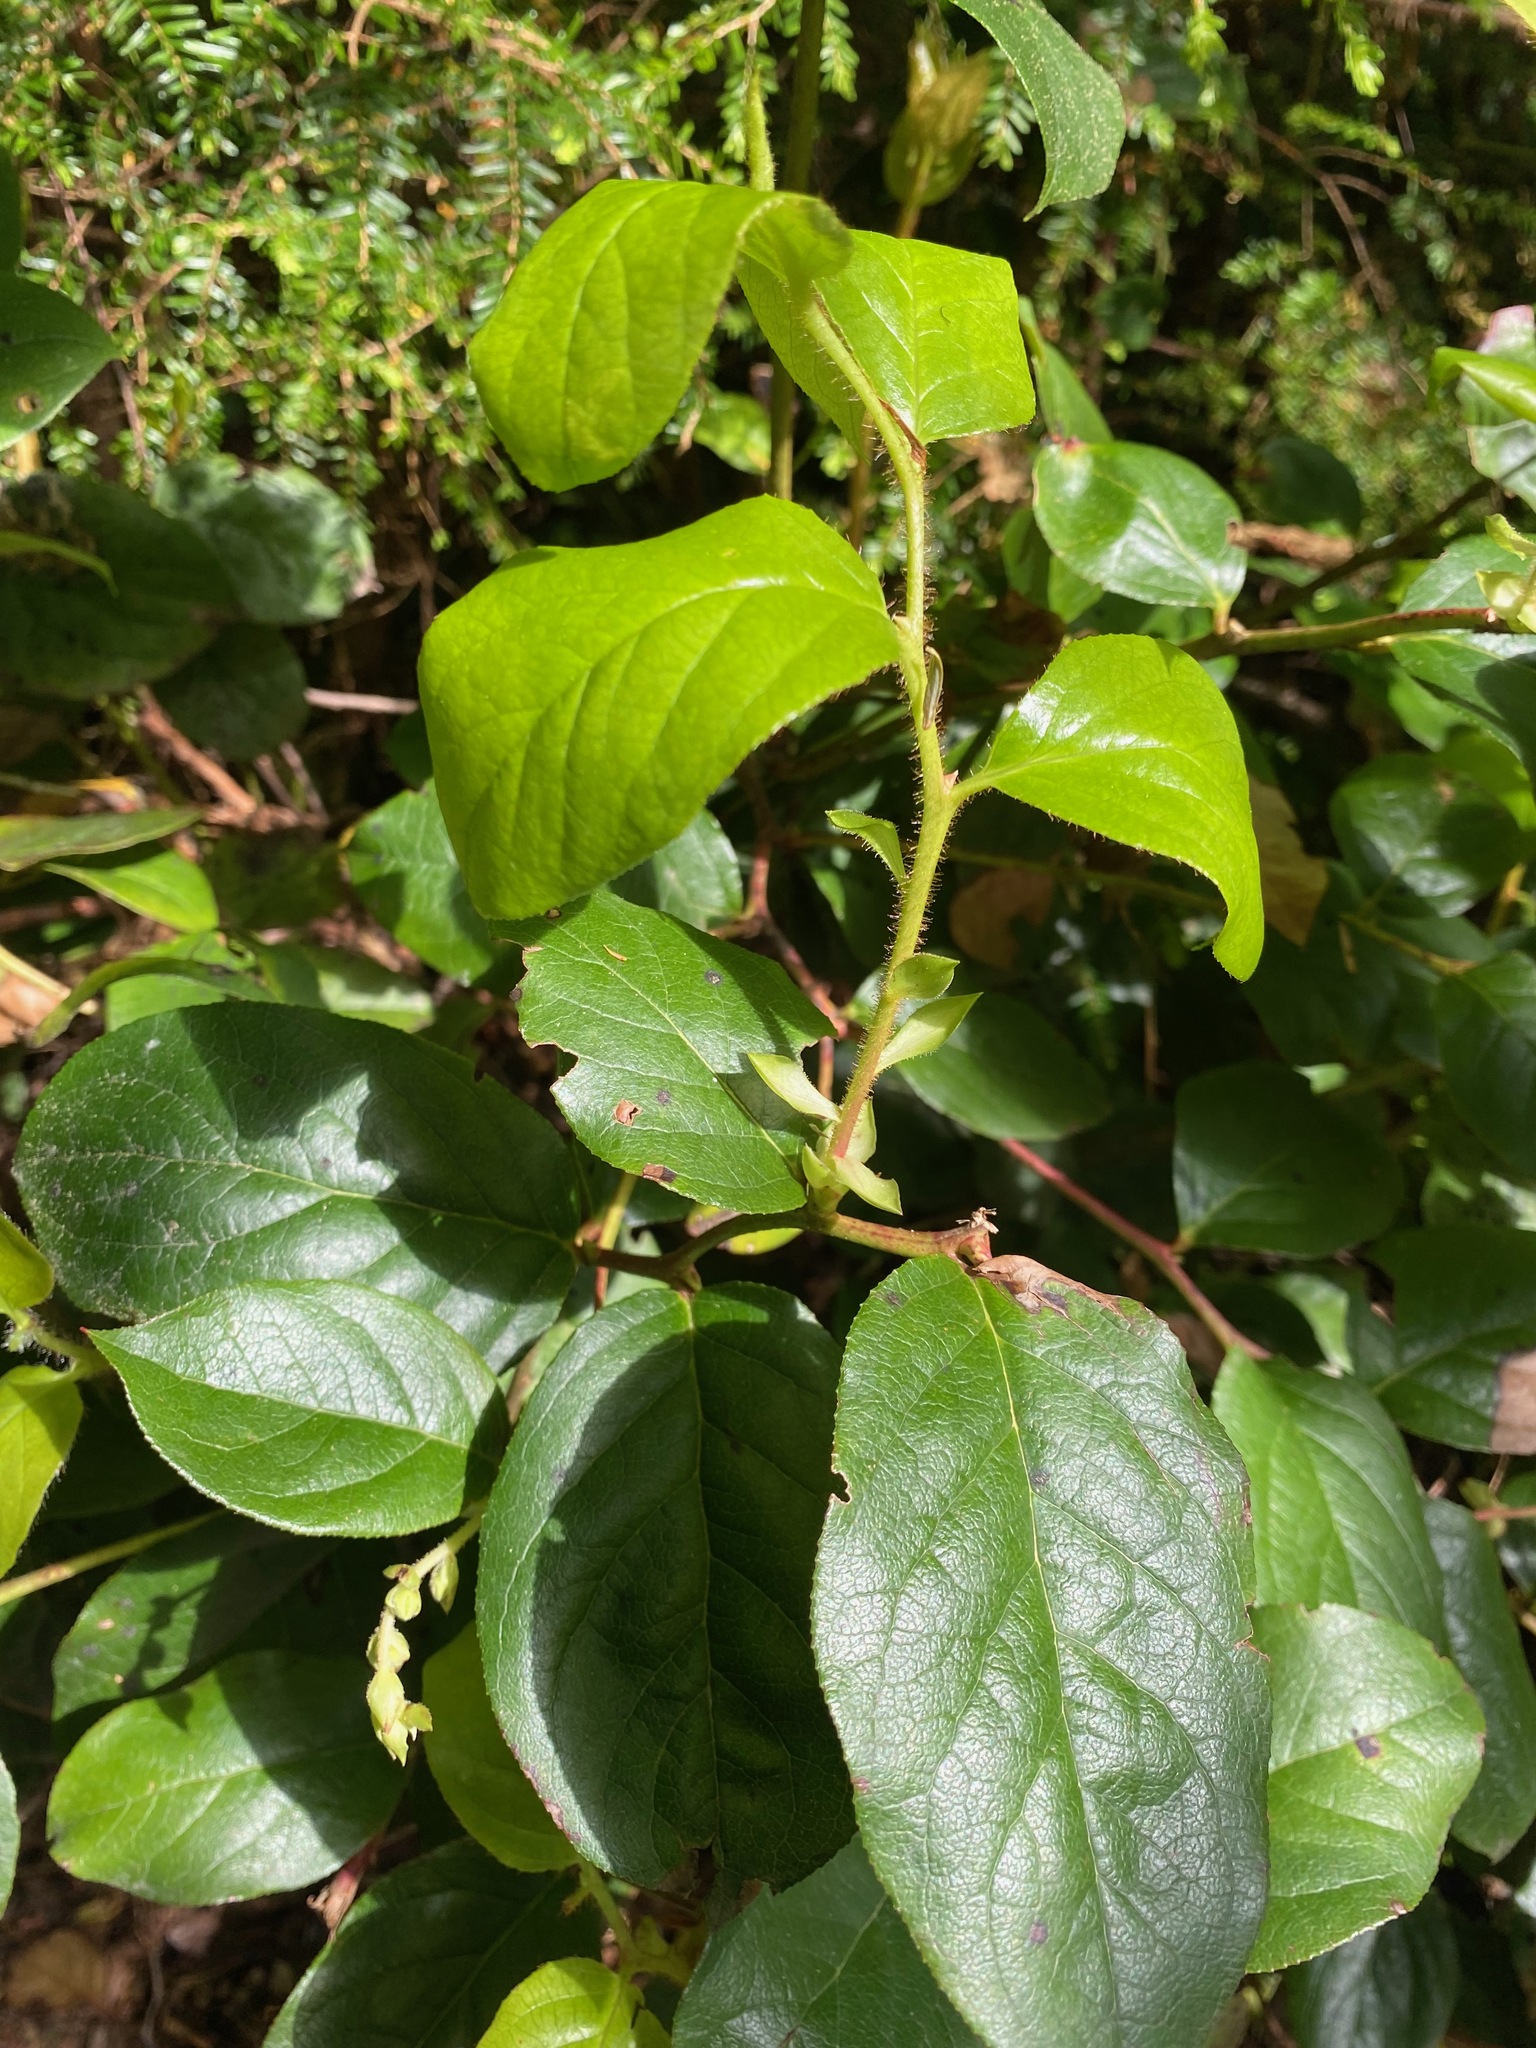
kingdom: Plantae
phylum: Tracheophyta
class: Magnoliopsida
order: Ericales
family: Ericaceae
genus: Gaultheria
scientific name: Gaultheria shallon
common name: Shallon
